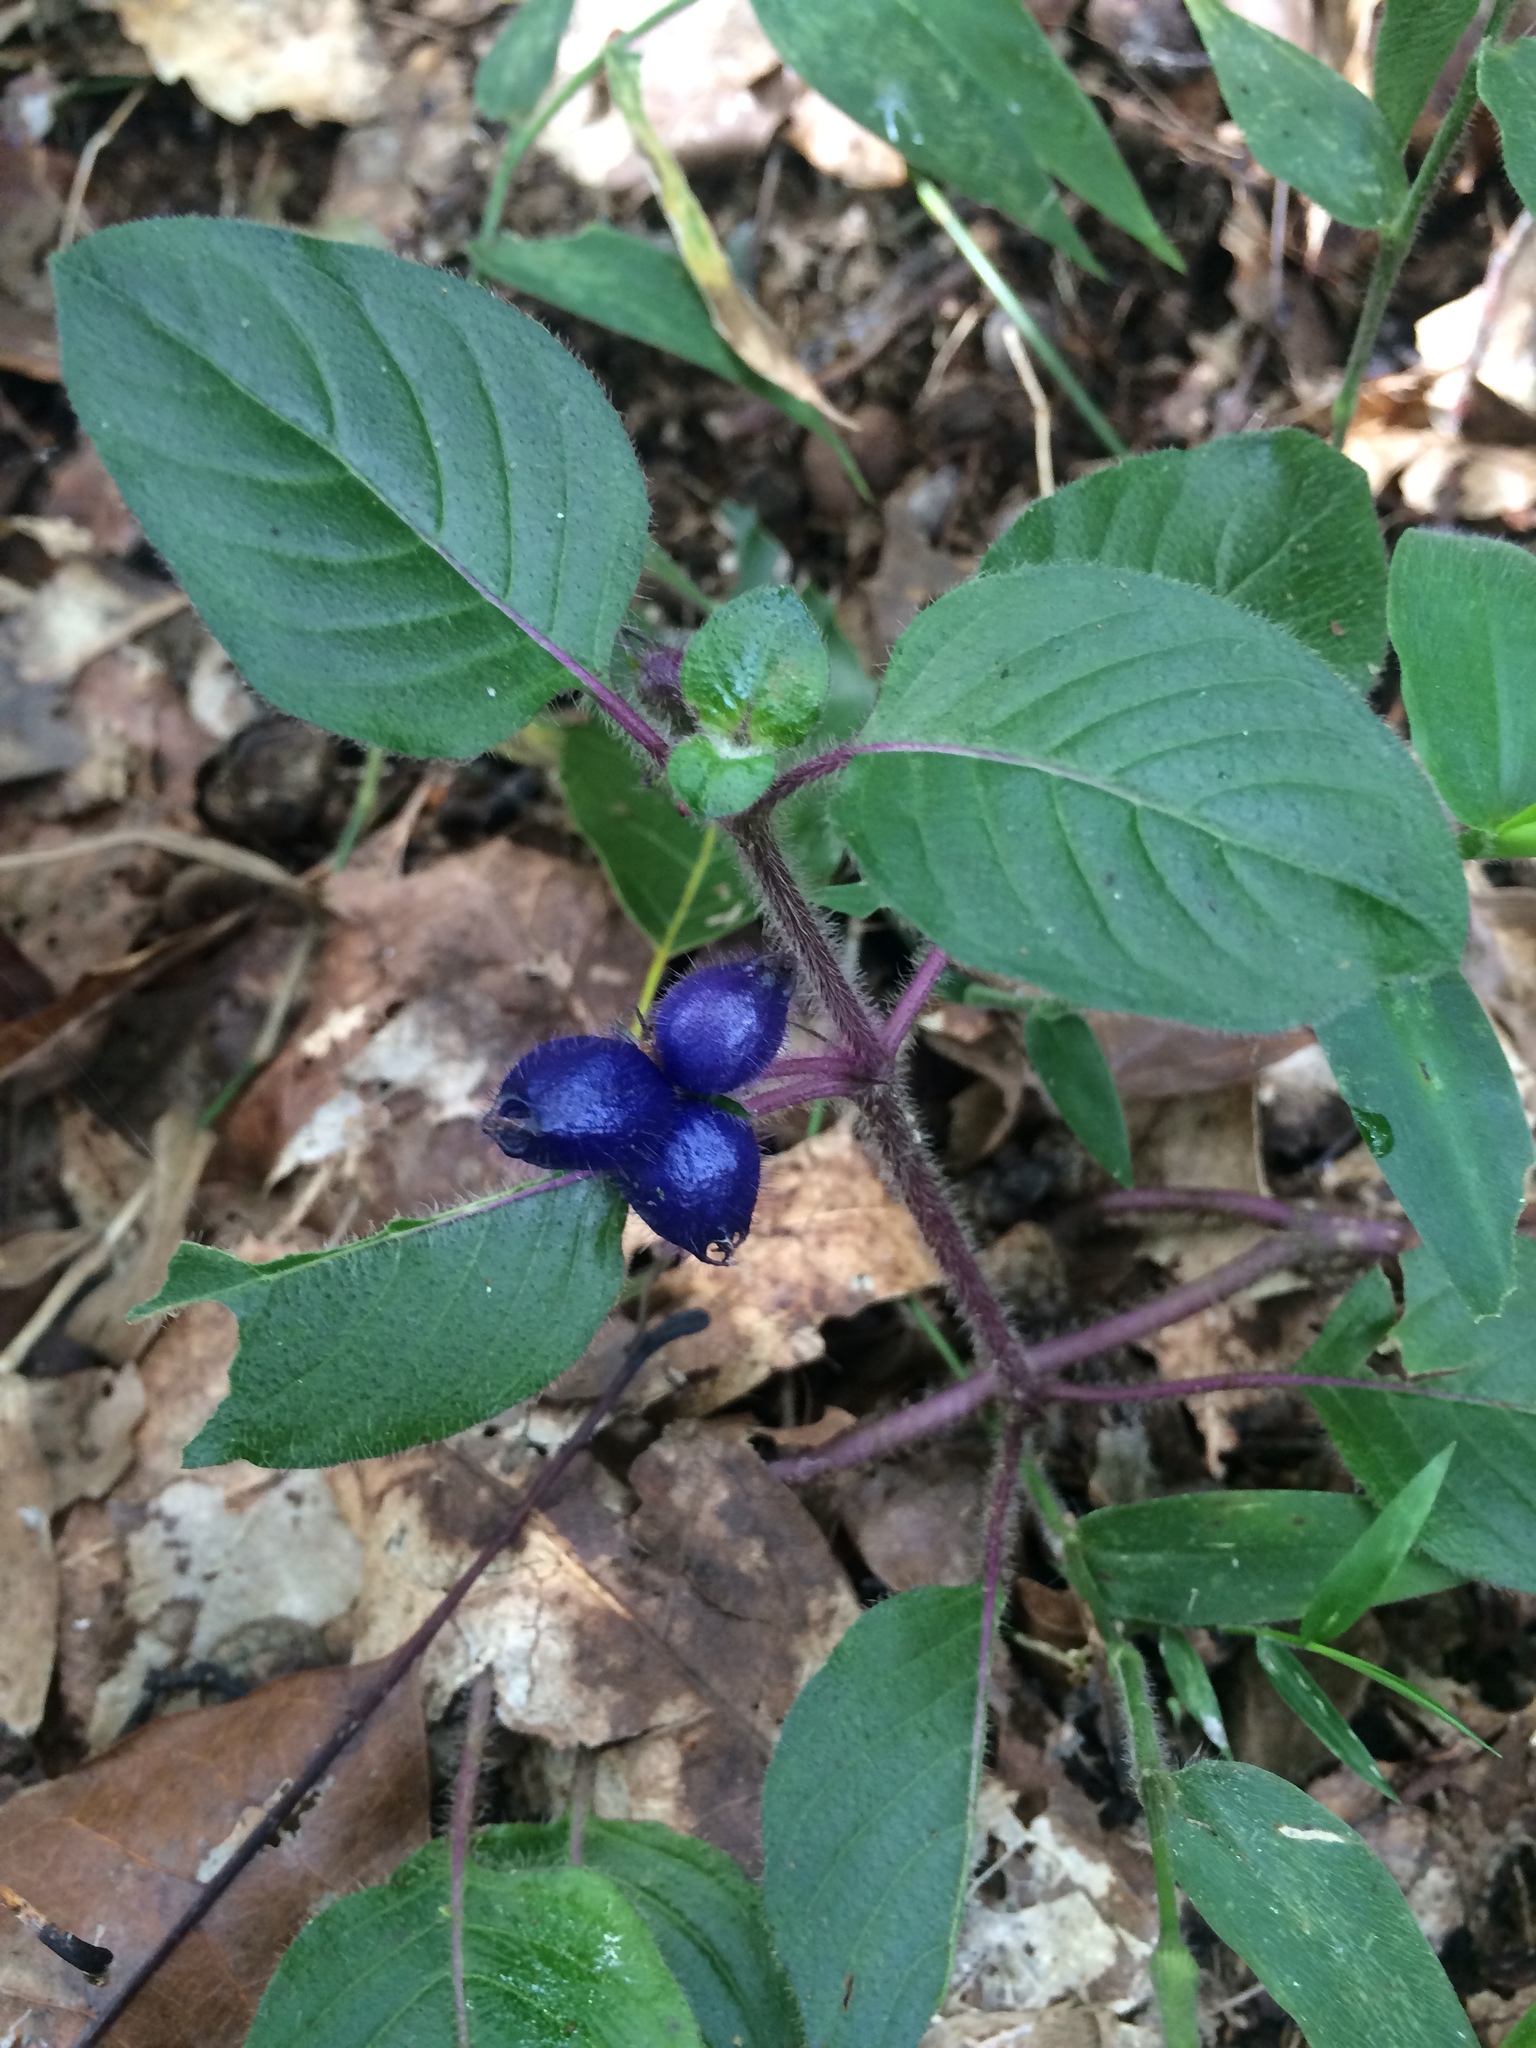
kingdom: Plantae
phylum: Tracheophyta
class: Magnoliopsida
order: Gentianales
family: Rubiaceae
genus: Coccocypselum
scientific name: Coccocypselum hirsutum
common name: Yerba de guava
